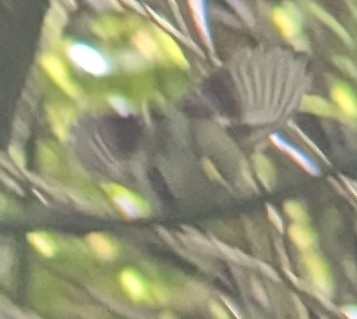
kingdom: Animalia
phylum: Chordata
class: Aves
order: Passeriformes
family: Acanthisittidae
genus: Acanthisitta
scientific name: Acanthisitta chloris
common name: Rifleman
